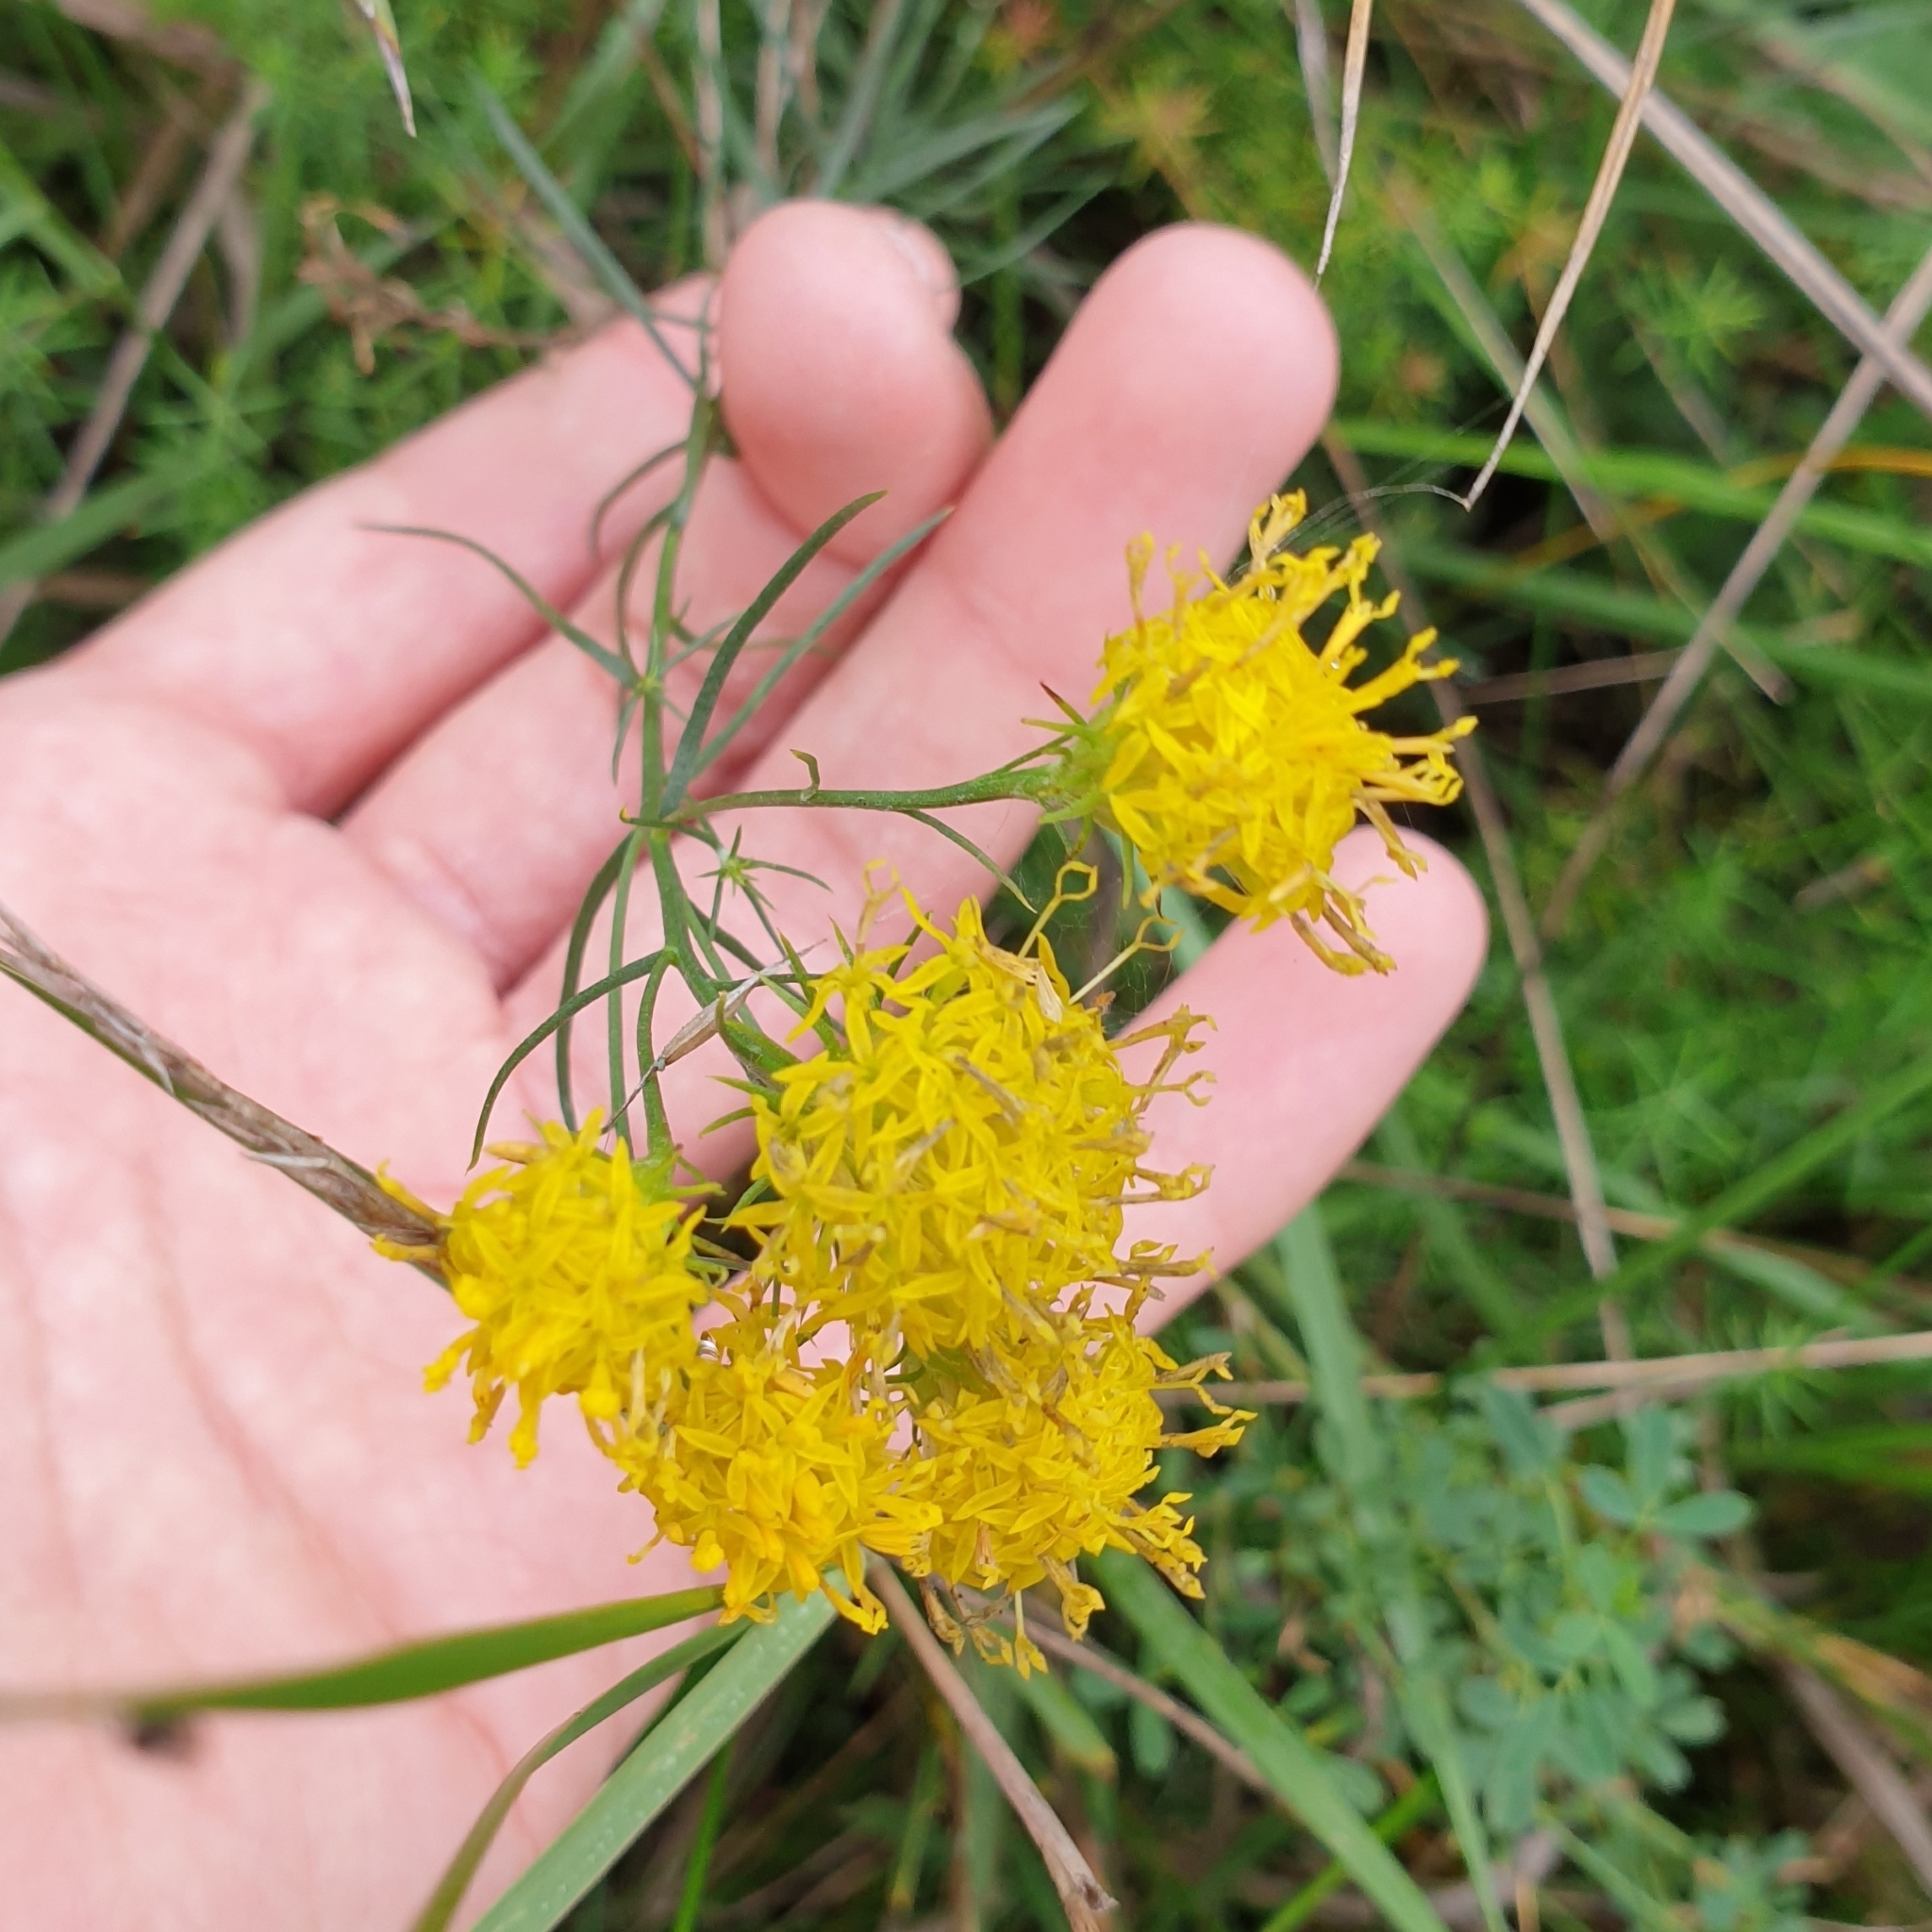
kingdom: Plantae
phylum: Tracheophyta
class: Magnoliopsida
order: Asterales
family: Asteraceae
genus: Galatella
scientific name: Galatella linosyris
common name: Goldilocks aster
